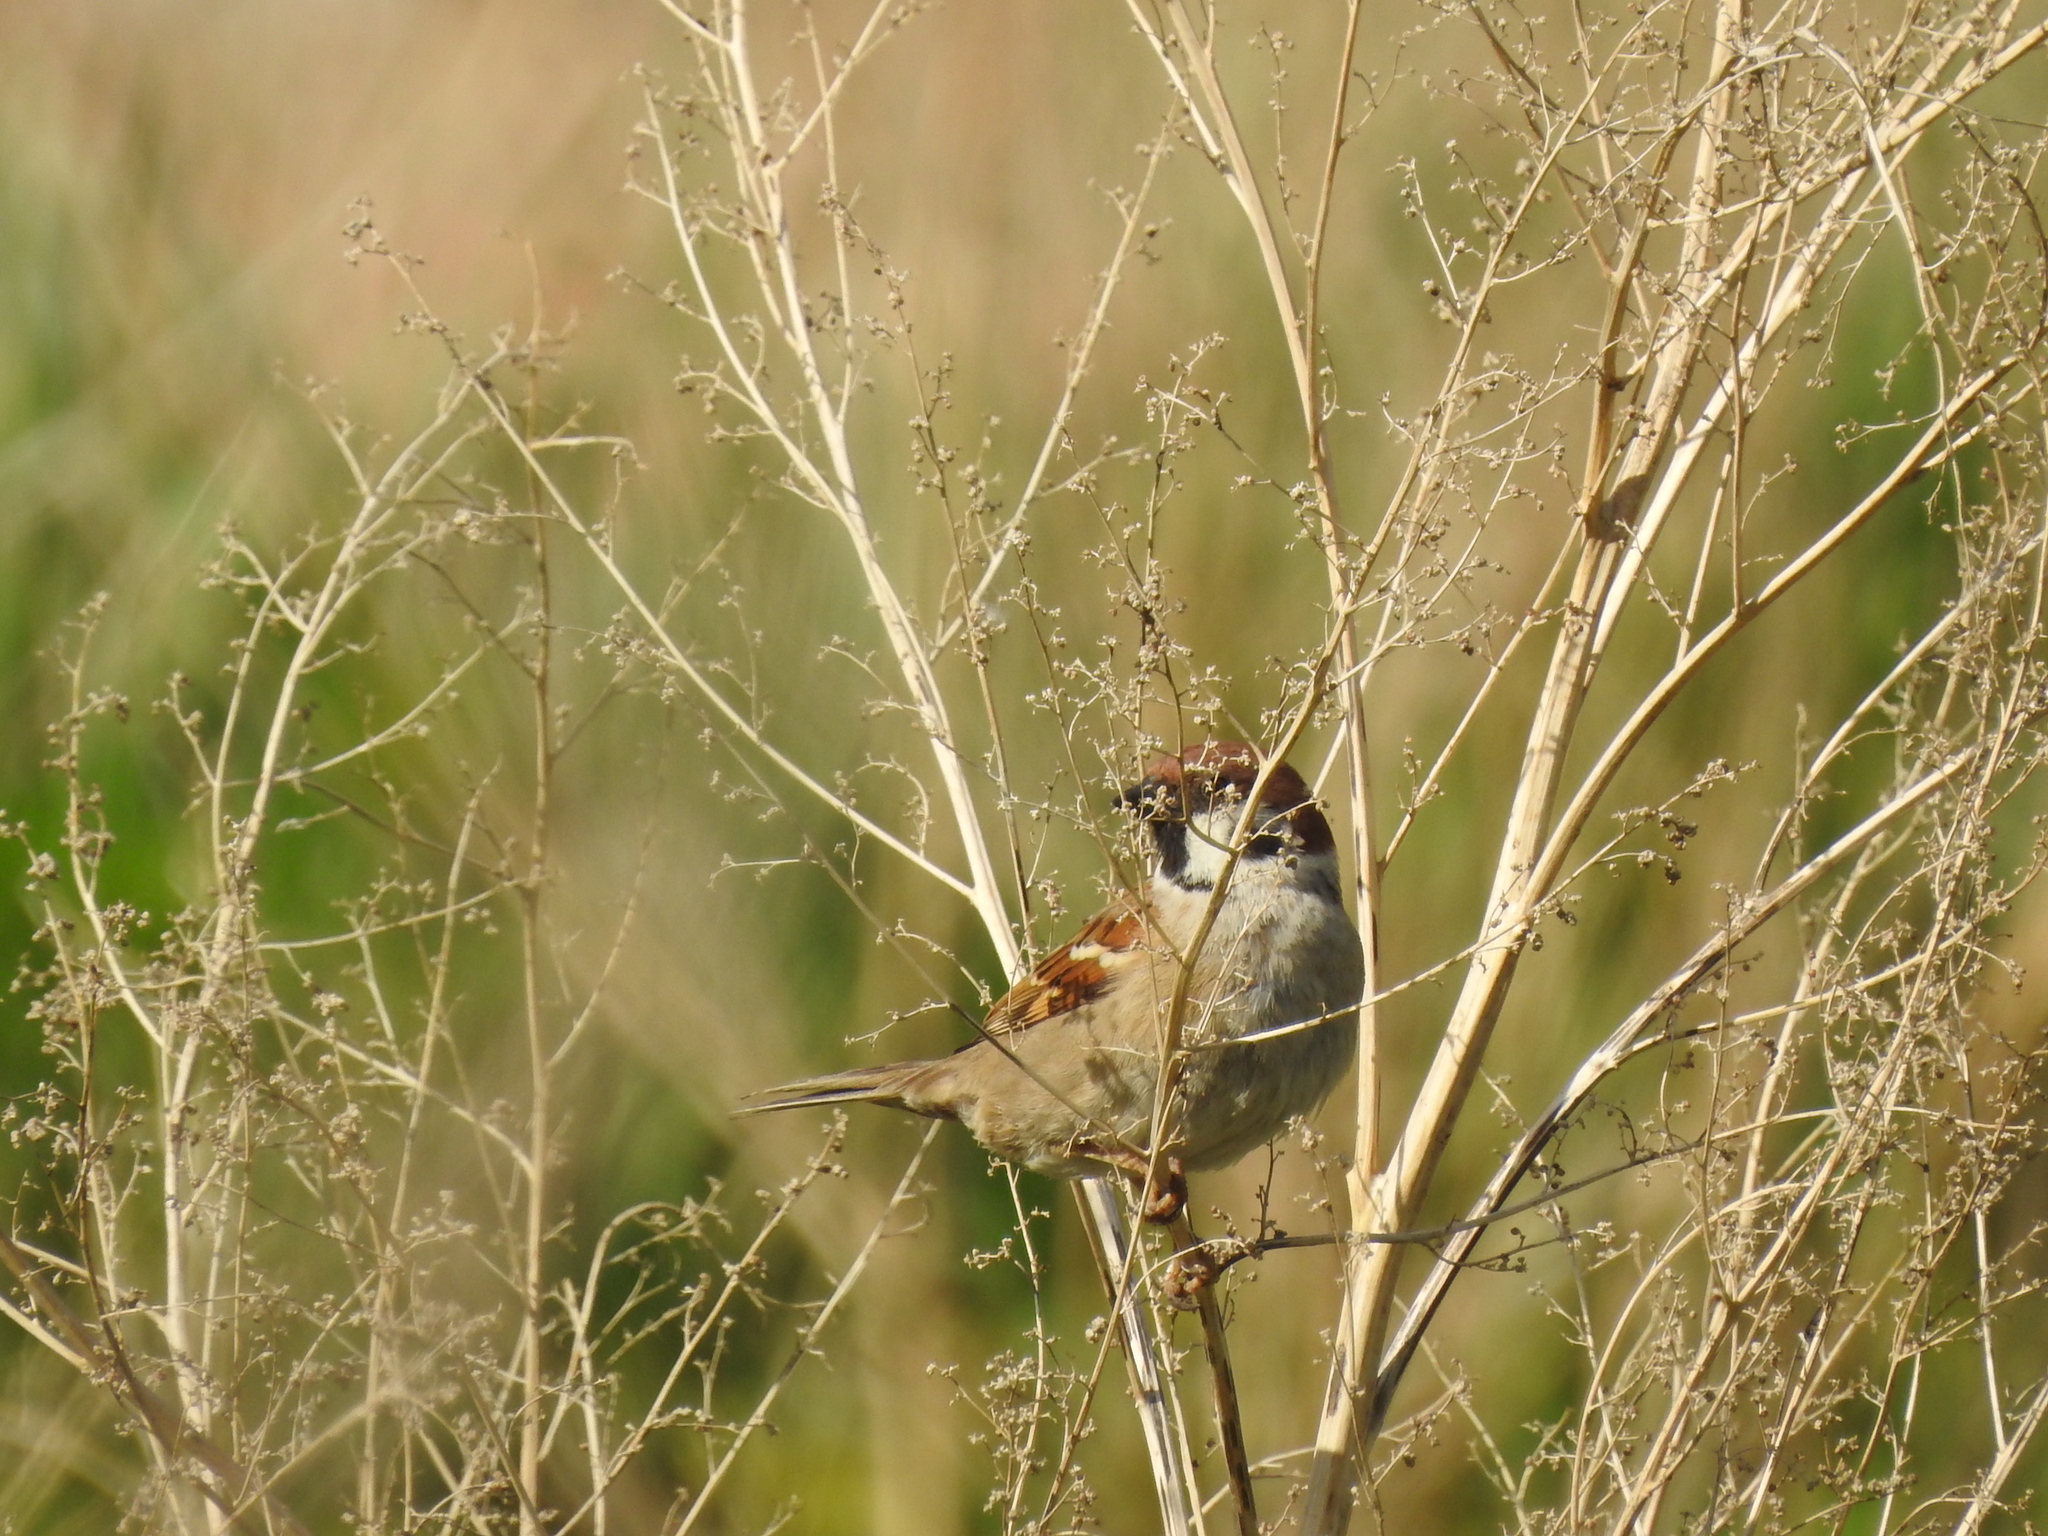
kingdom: Animalia
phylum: Chordata
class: Aves
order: Passeriformes
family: Passeridae
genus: Passer
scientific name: Passer montanus
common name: Eurasian tree sparrow
